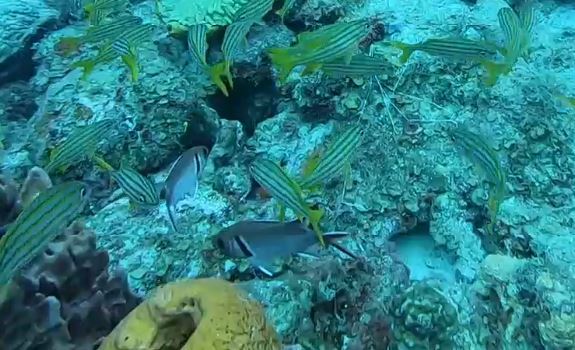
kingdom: Animalia
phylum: Chordata
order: Perciformes
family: Haemulidae
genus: Haemulon
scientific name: Haemulon chrysargyreum
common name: Smallmouth grunt
